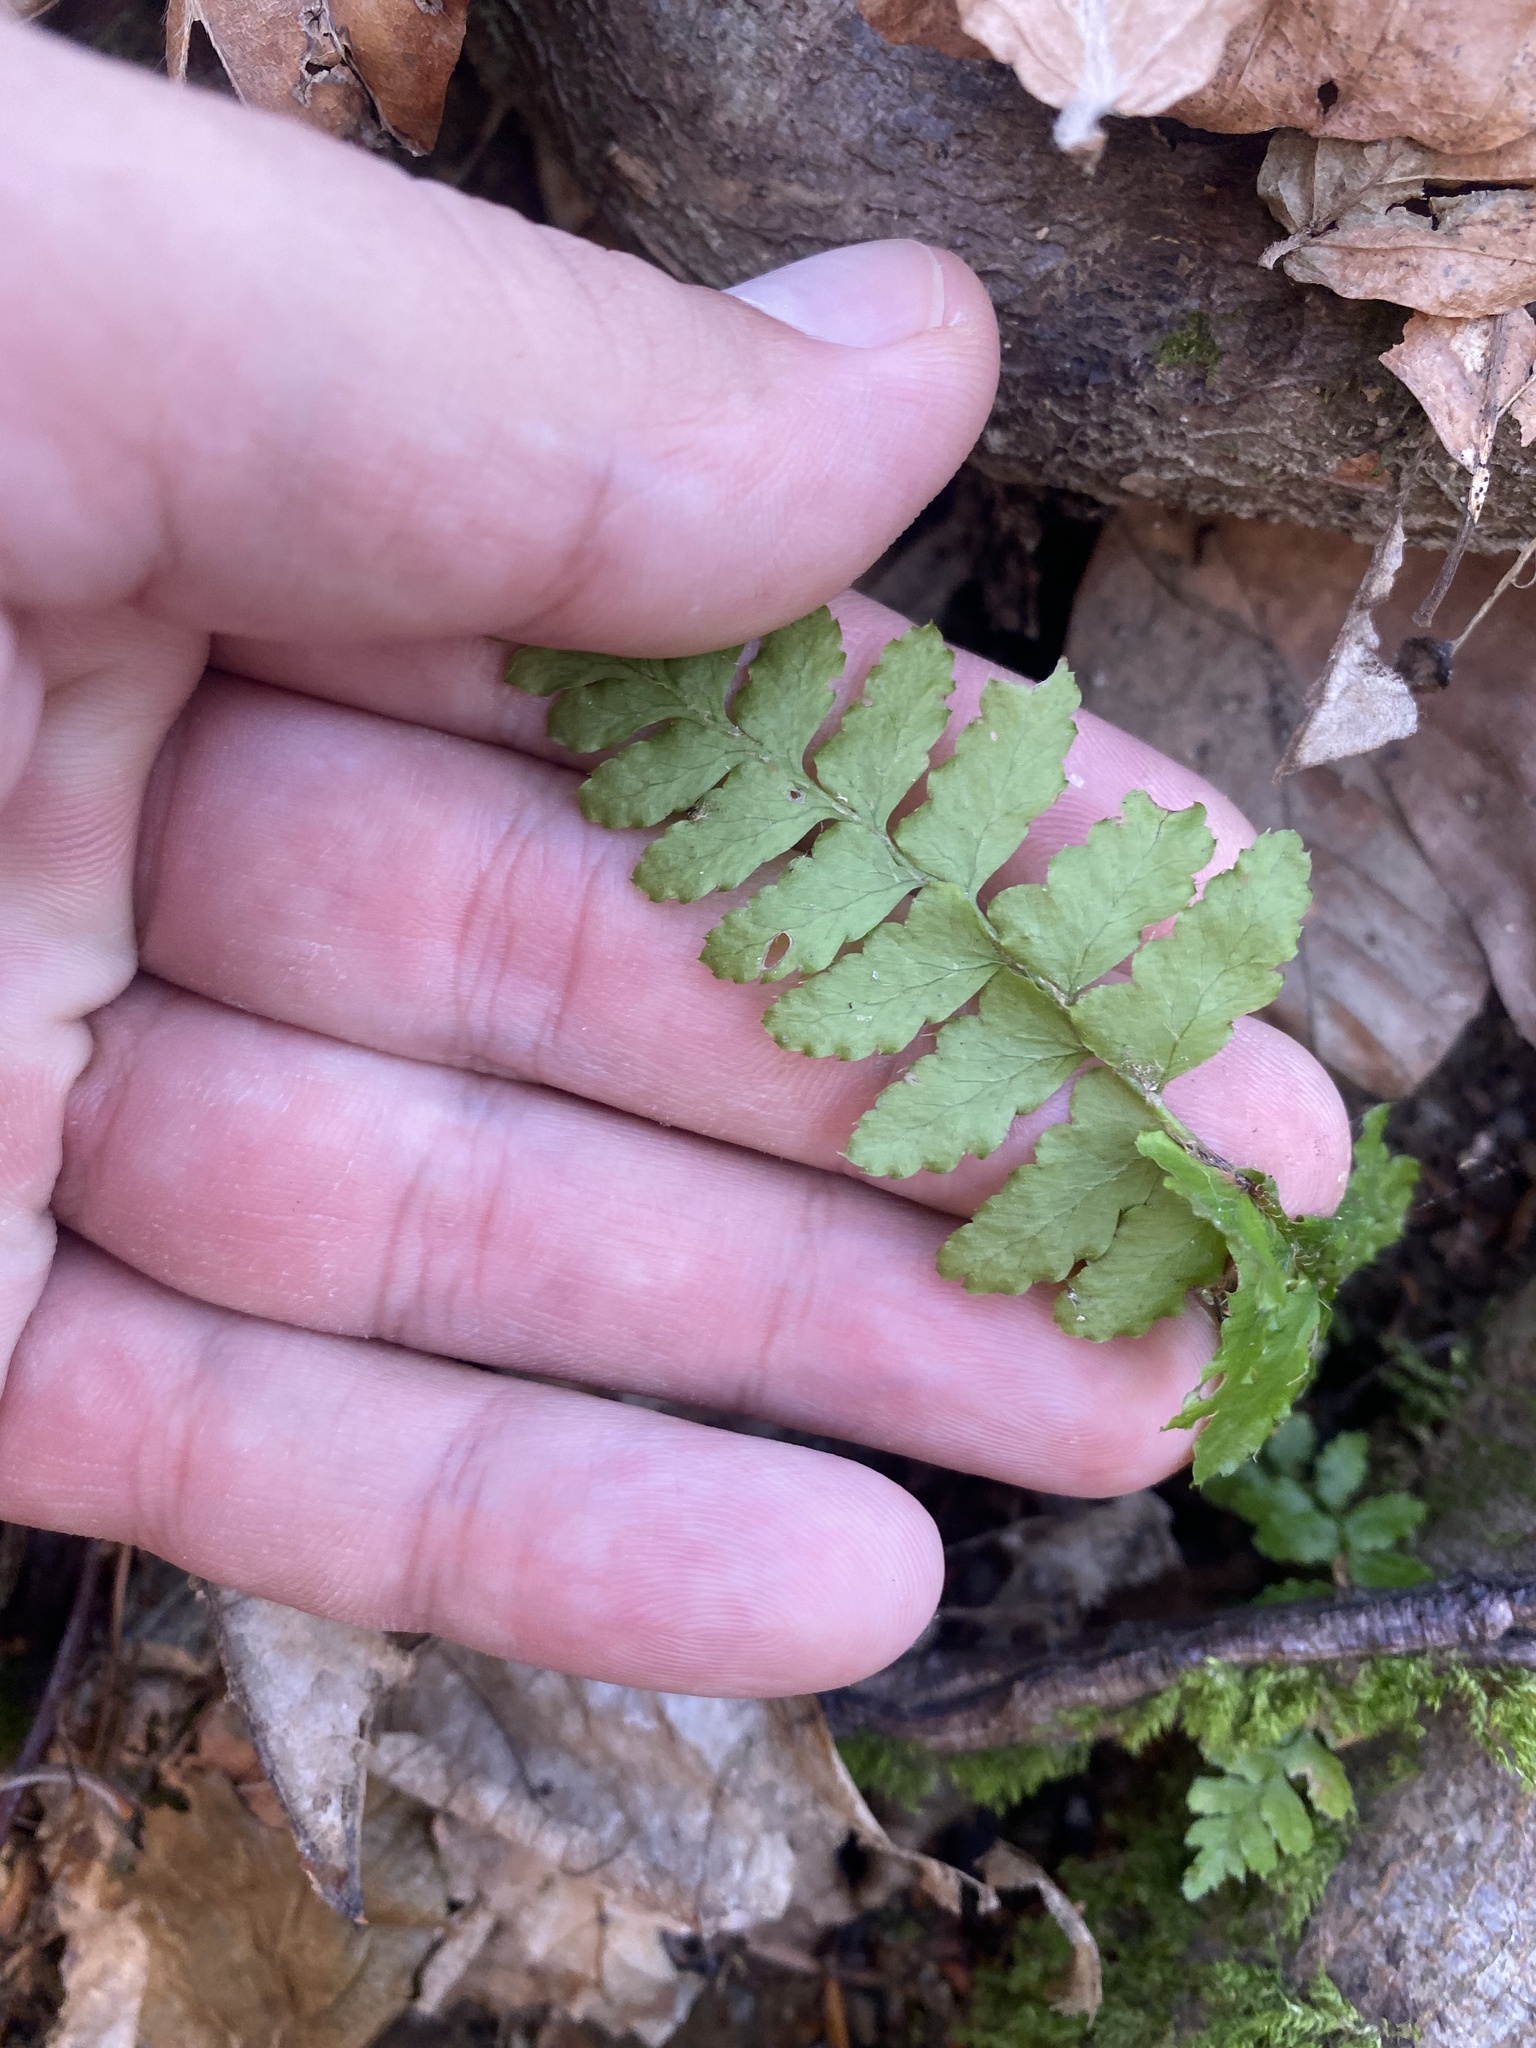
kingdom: Plantae
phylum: Tracheophyta
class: Polypodiopsida
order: Polypodiales
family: Dryopteridaceae
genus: Polystichum
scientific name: Polystichum braunii
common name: Braun's holly fern
